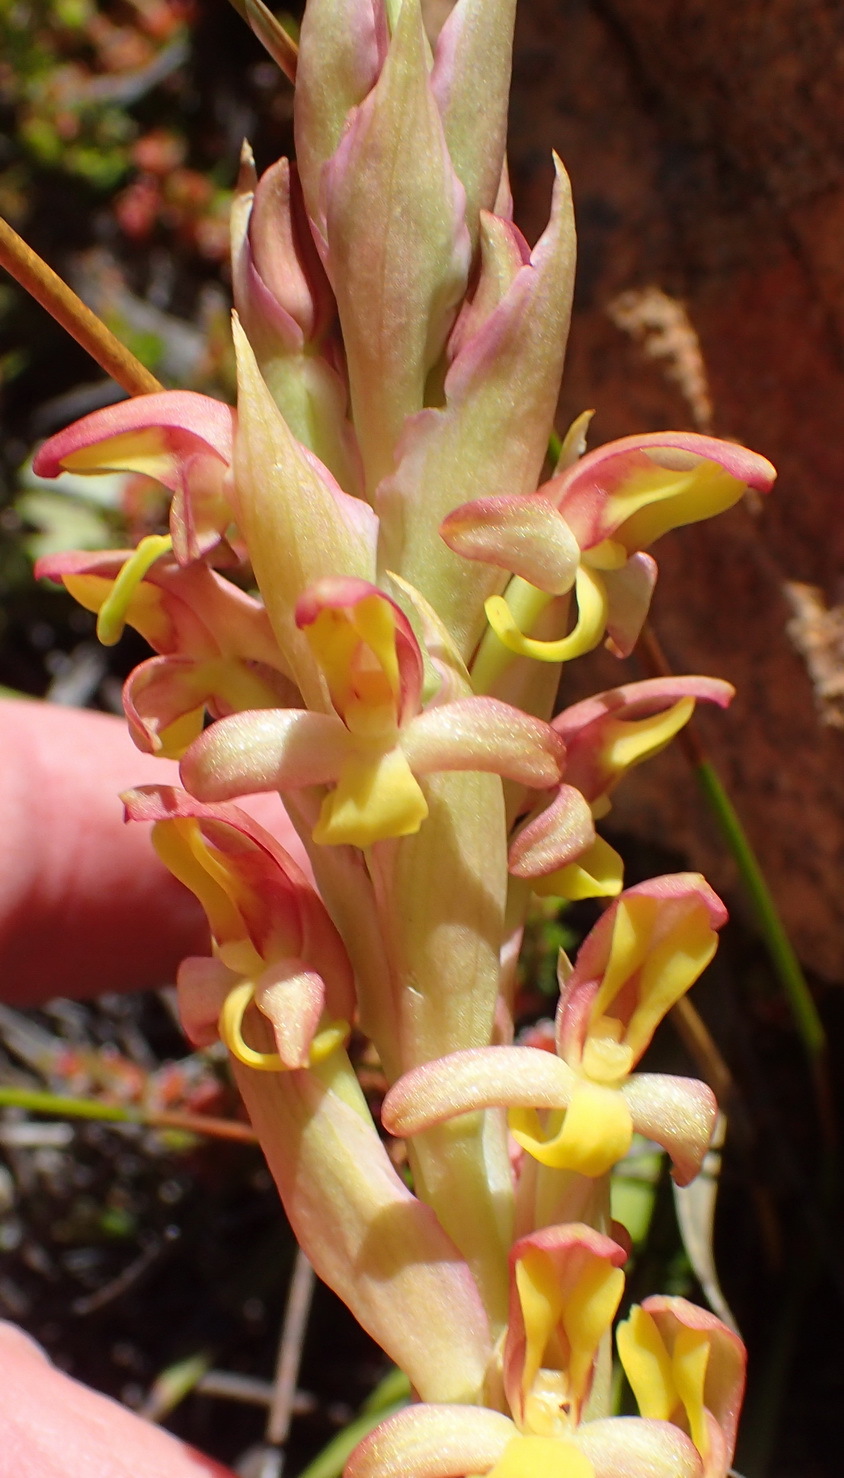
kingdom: Plantae
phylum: Tracheophyta
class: Liliopsida
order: Asparagales
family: Orchidaceae
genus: Disa
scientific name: Disa bolusiana
